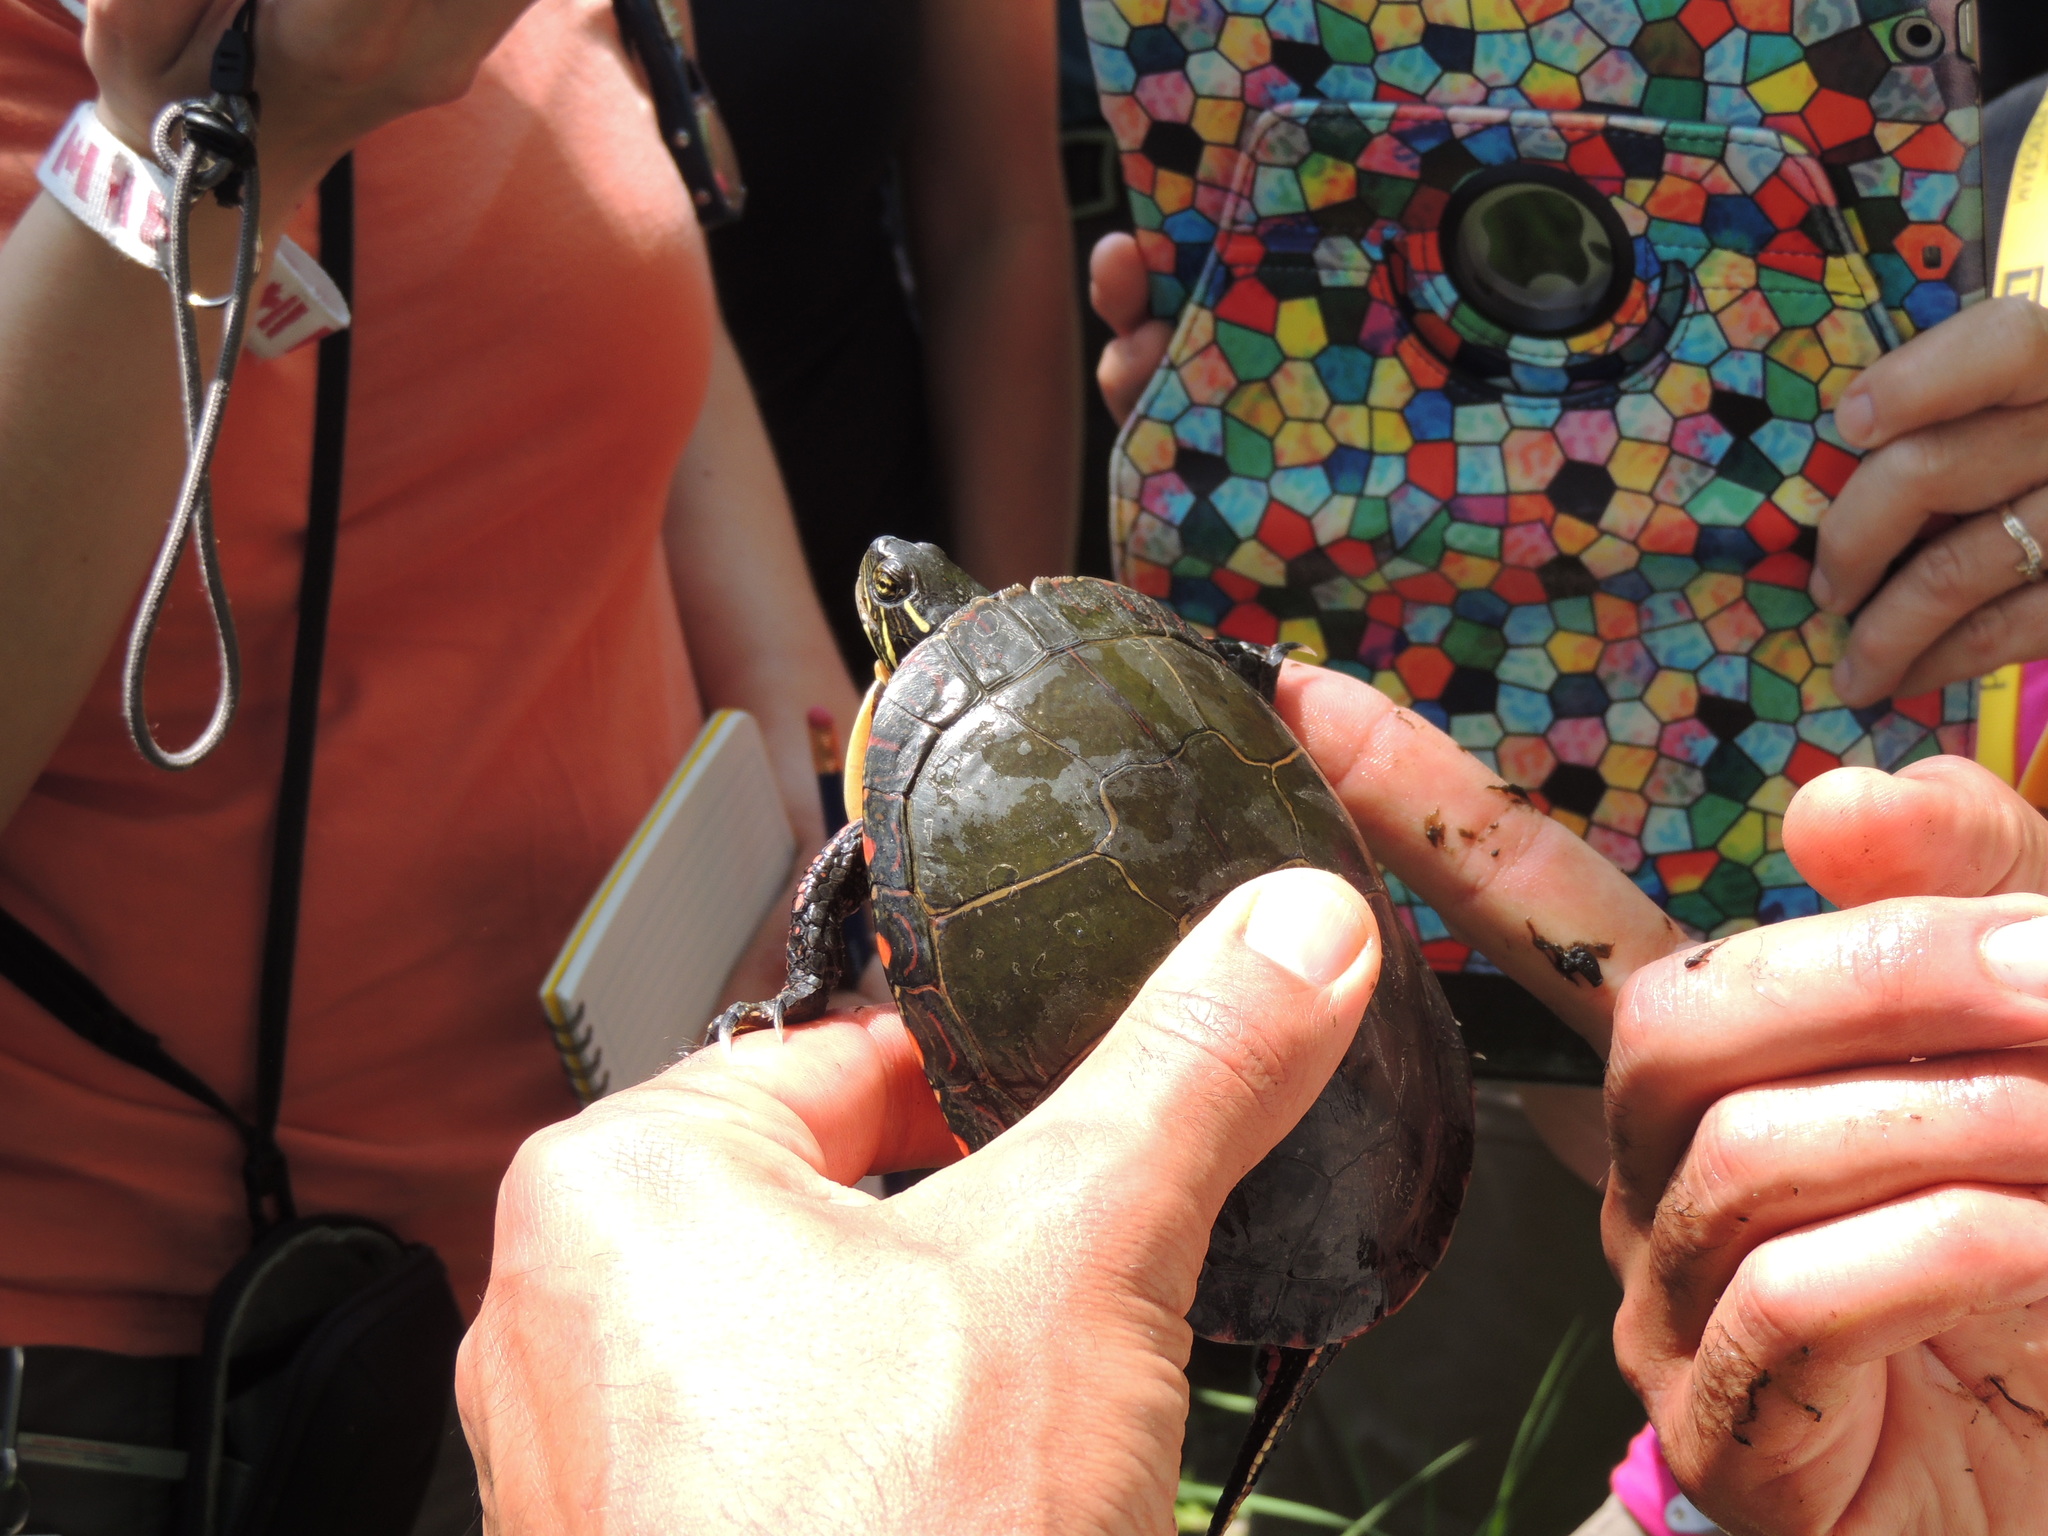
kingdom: Animalia
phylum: Chordata
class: Testudines
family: Emydidae
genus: Chrysemys
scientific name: Chrysemys picta
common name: Painted turtle
